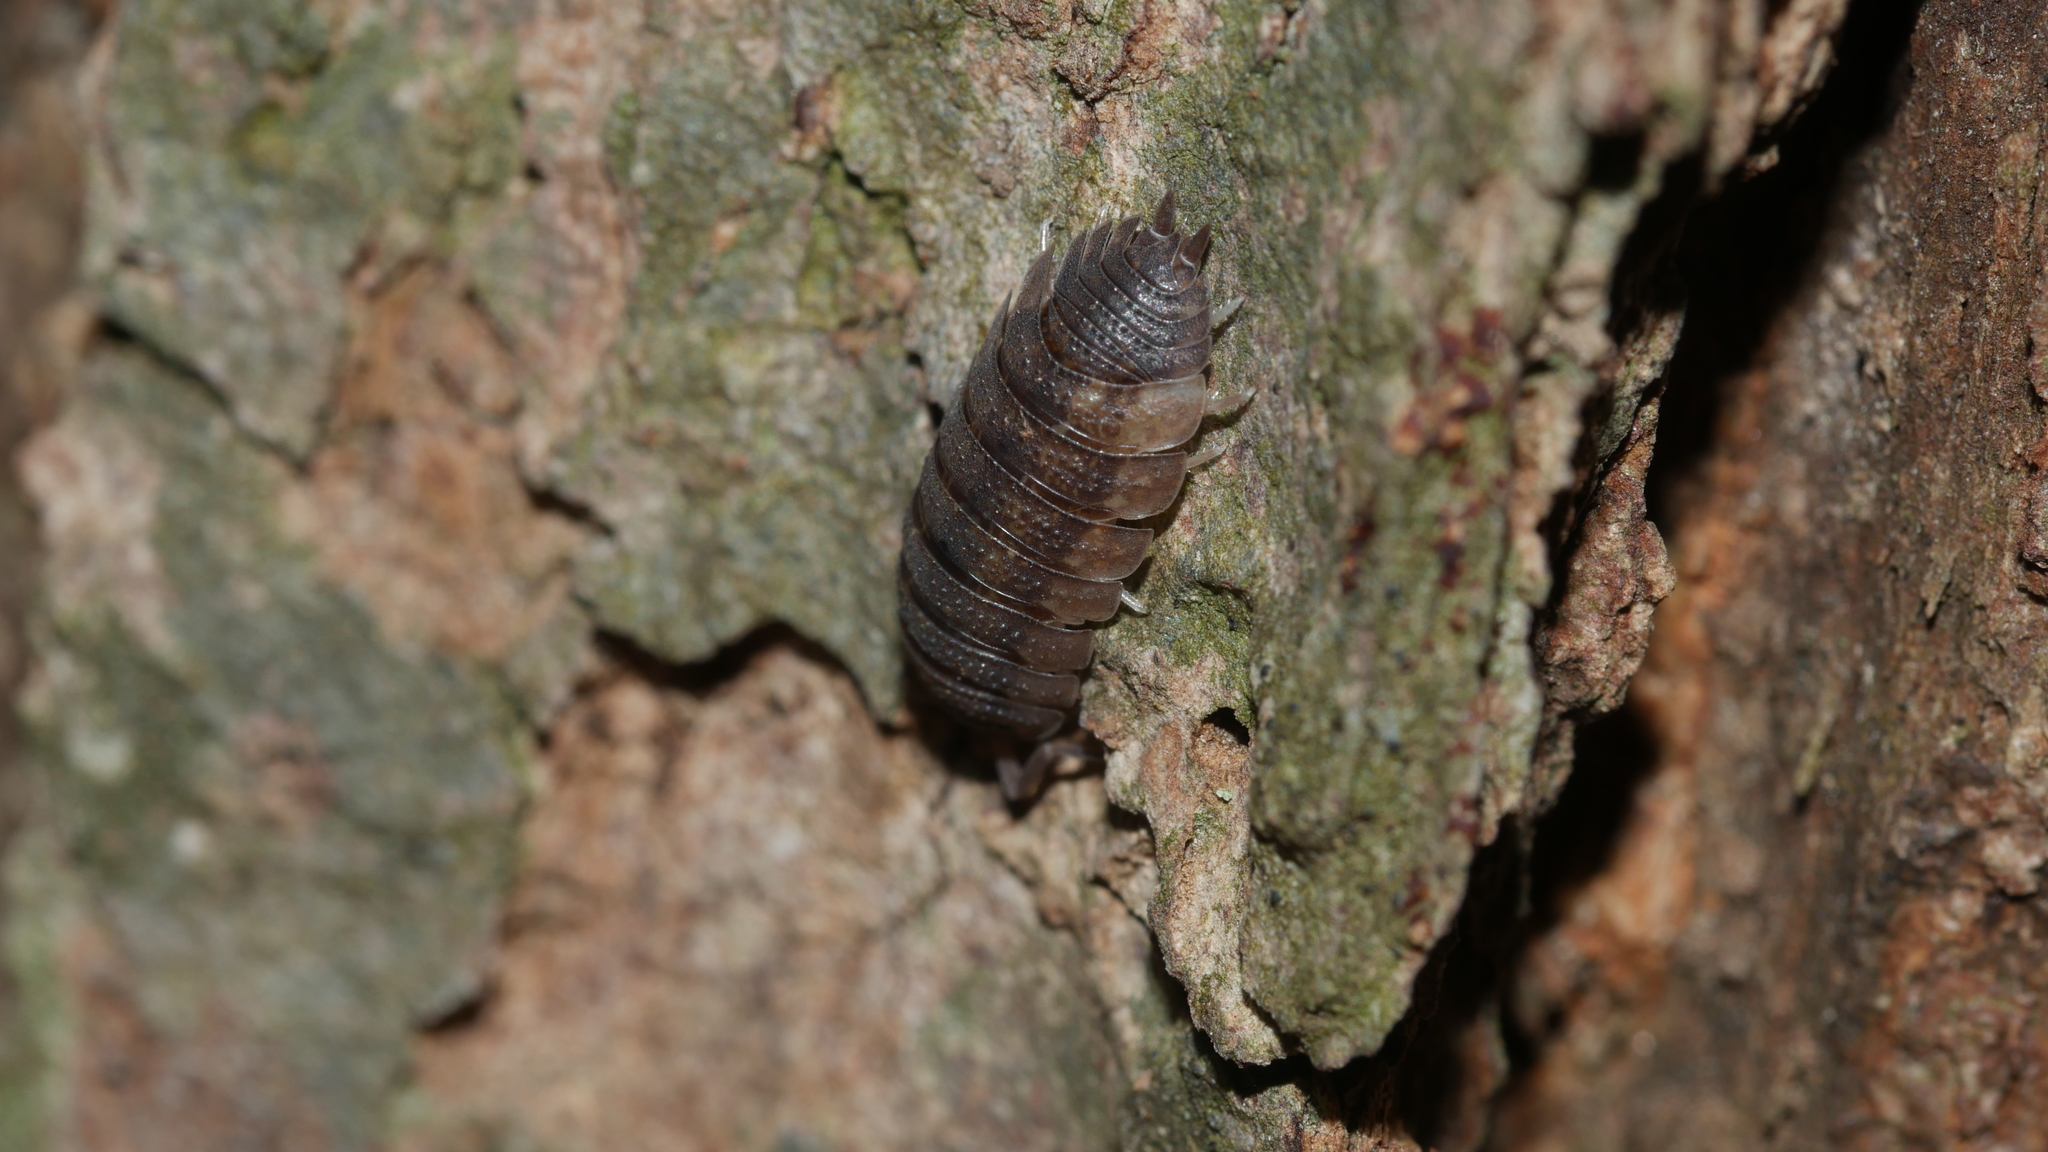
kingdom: Animalia
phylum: Arthropoda
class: Malacostraca
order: Isopoda
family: Porcellionidae
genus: Porcellio
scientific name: Porcellio scaber
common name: Common rough woodlouse
